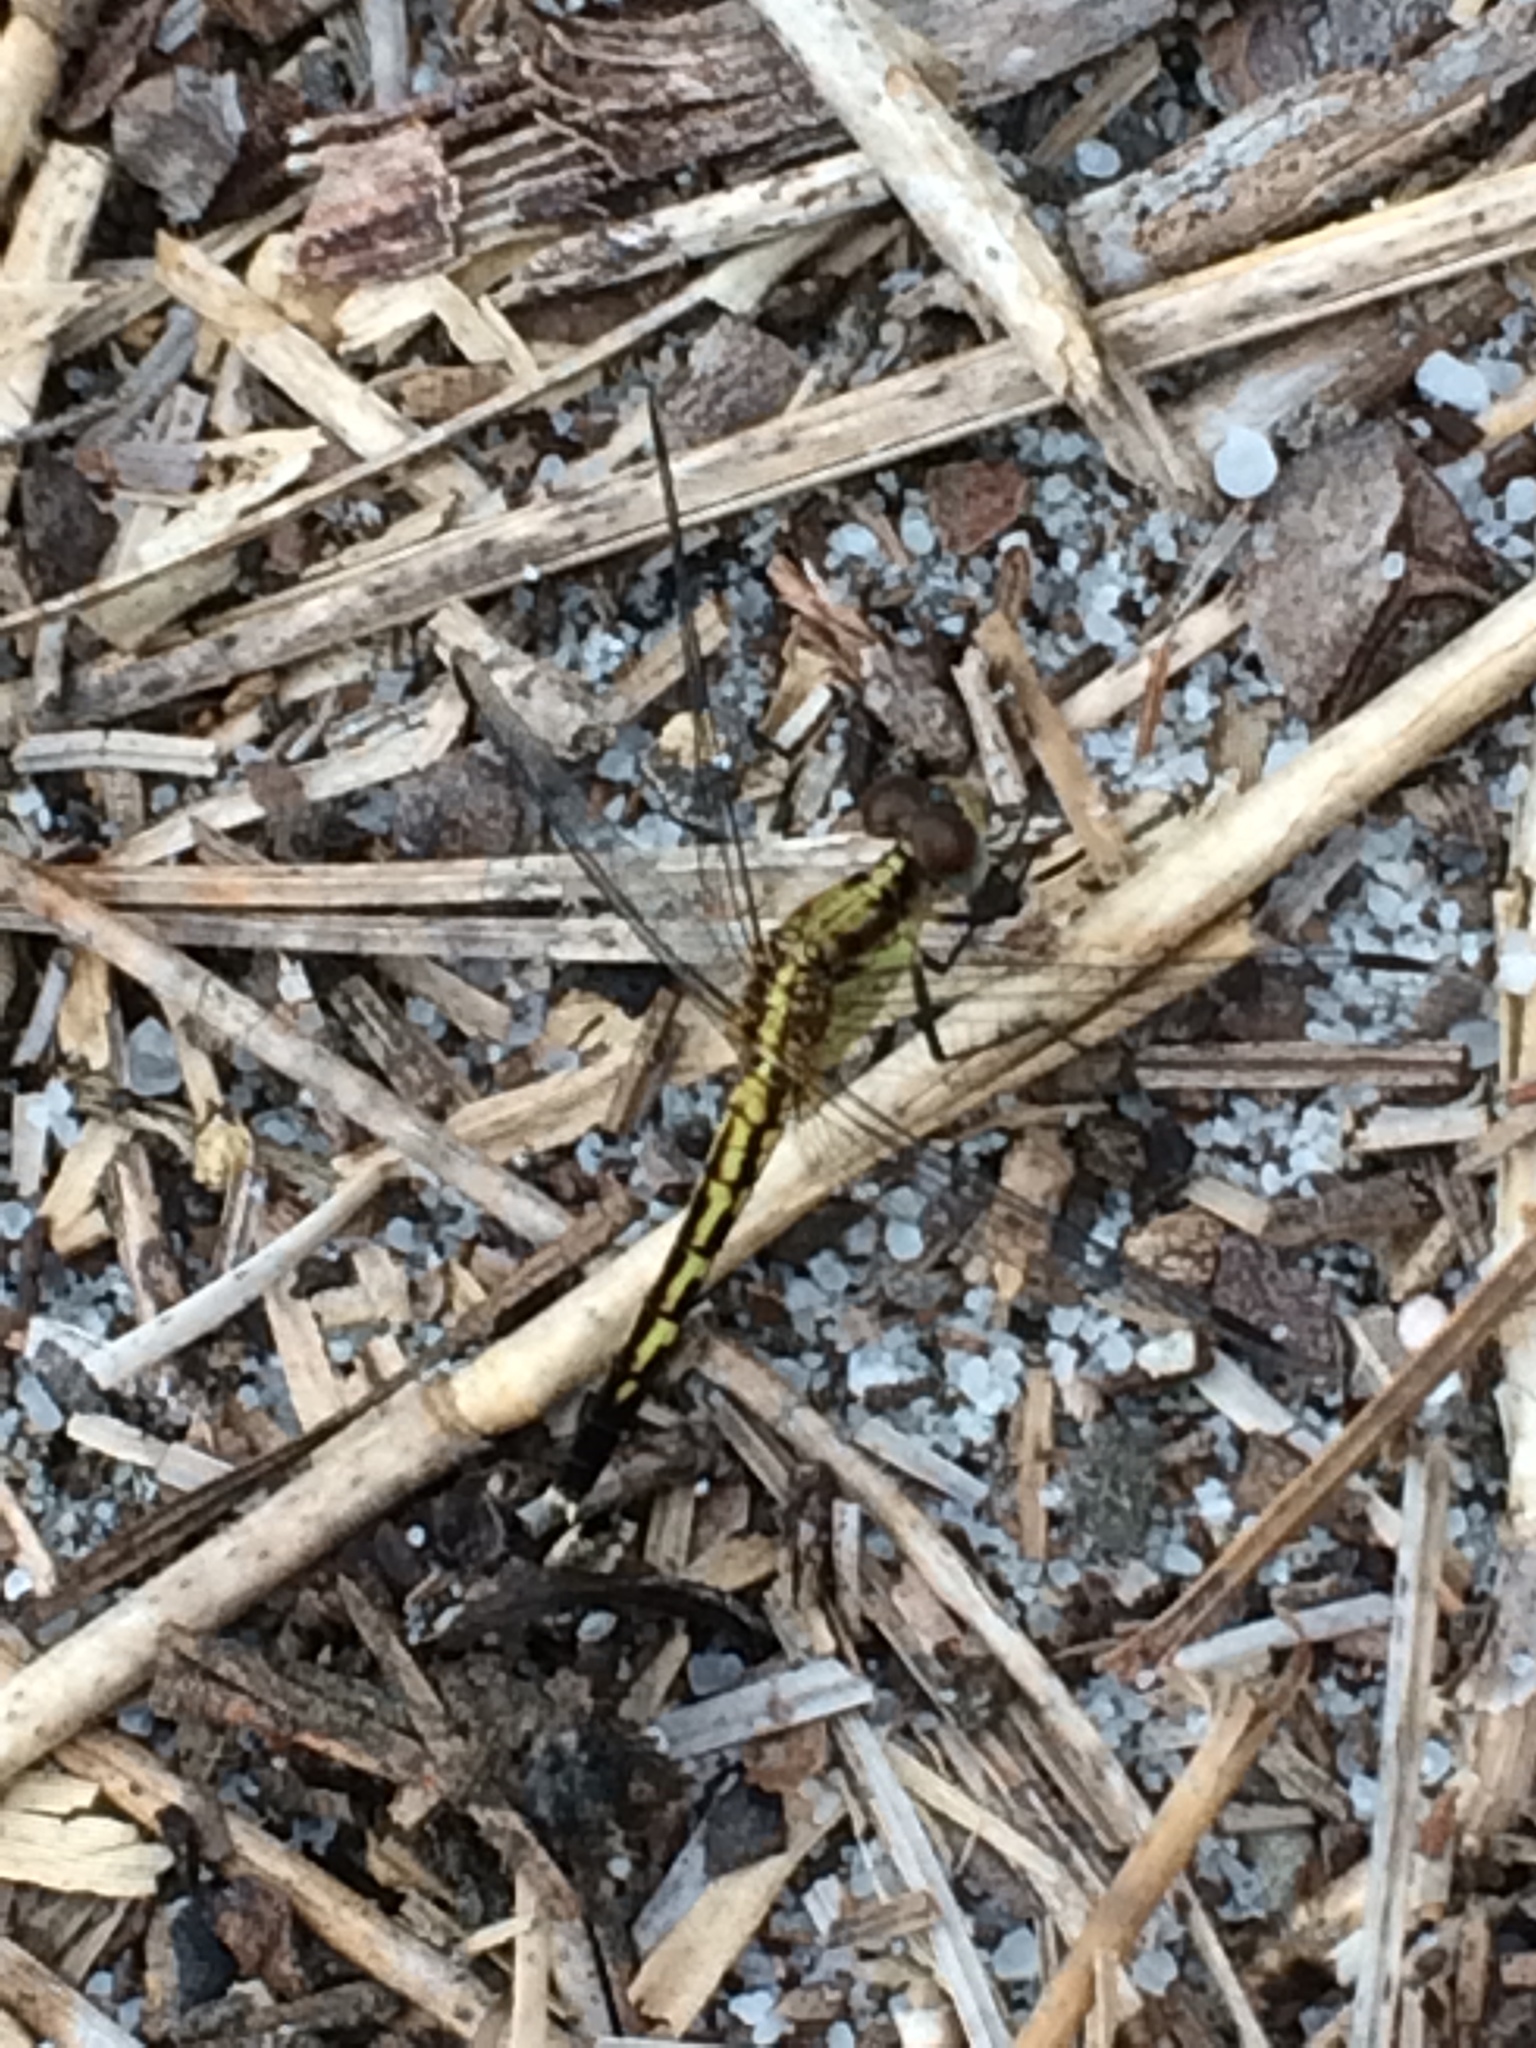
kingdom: Animalia
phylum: Arthropoda
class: Insecta
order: Odonata
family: Libellulidae
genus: Erythrodiplax
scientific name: Erythrodiplax minuscula
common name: Little blue dragonlet
